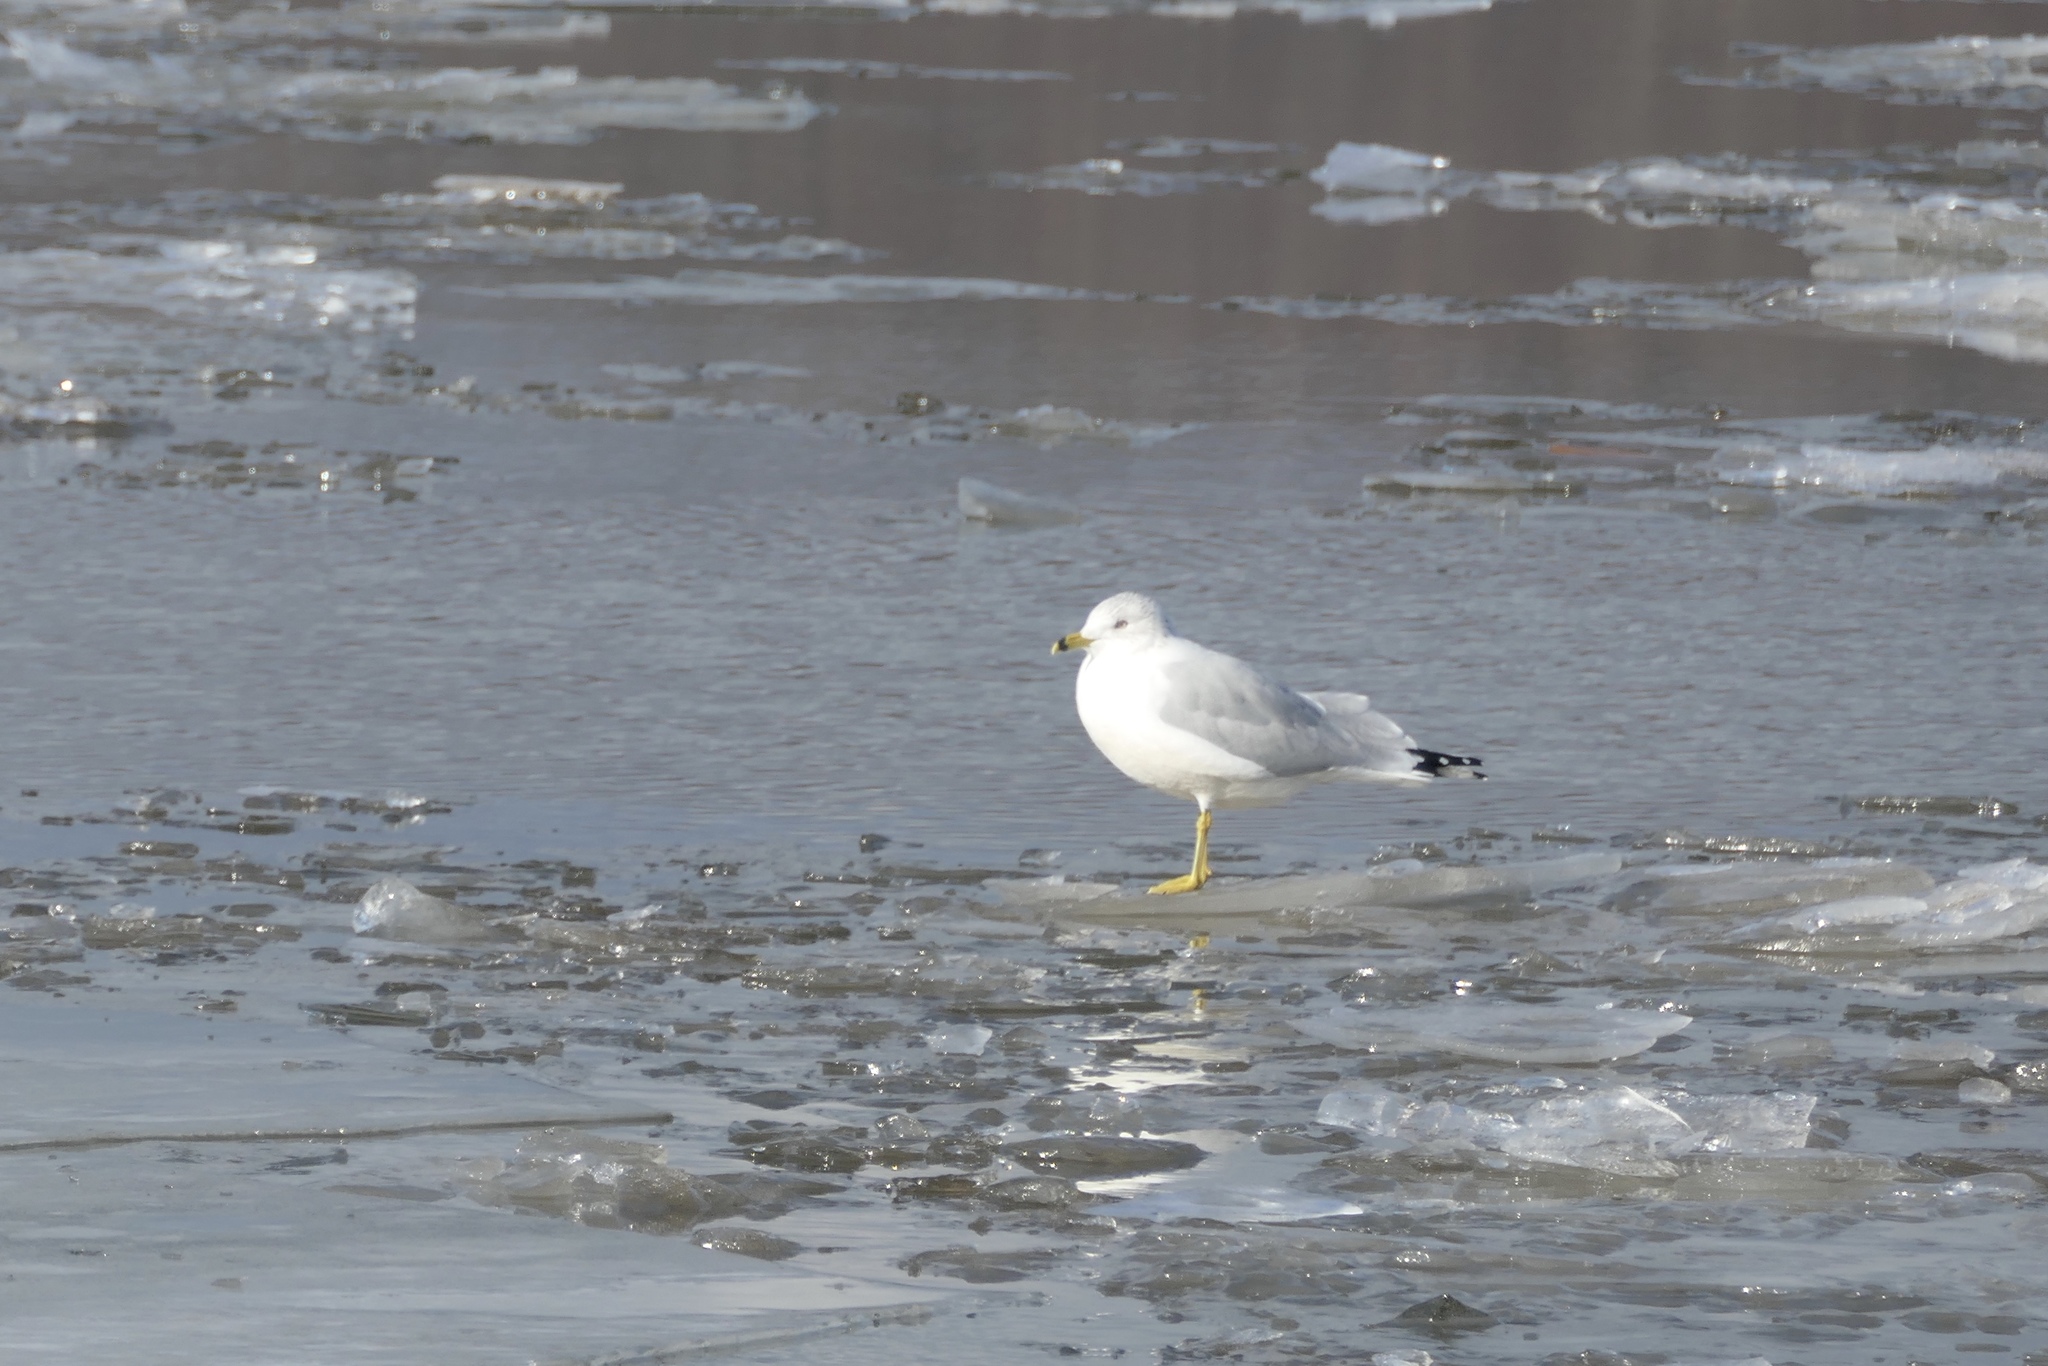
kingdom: Animalia
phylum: Chordata
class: Aves
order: Charadriiformes
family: Laridae
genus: Larus
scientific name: Larus delawarensis
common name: Ring-billed gull
